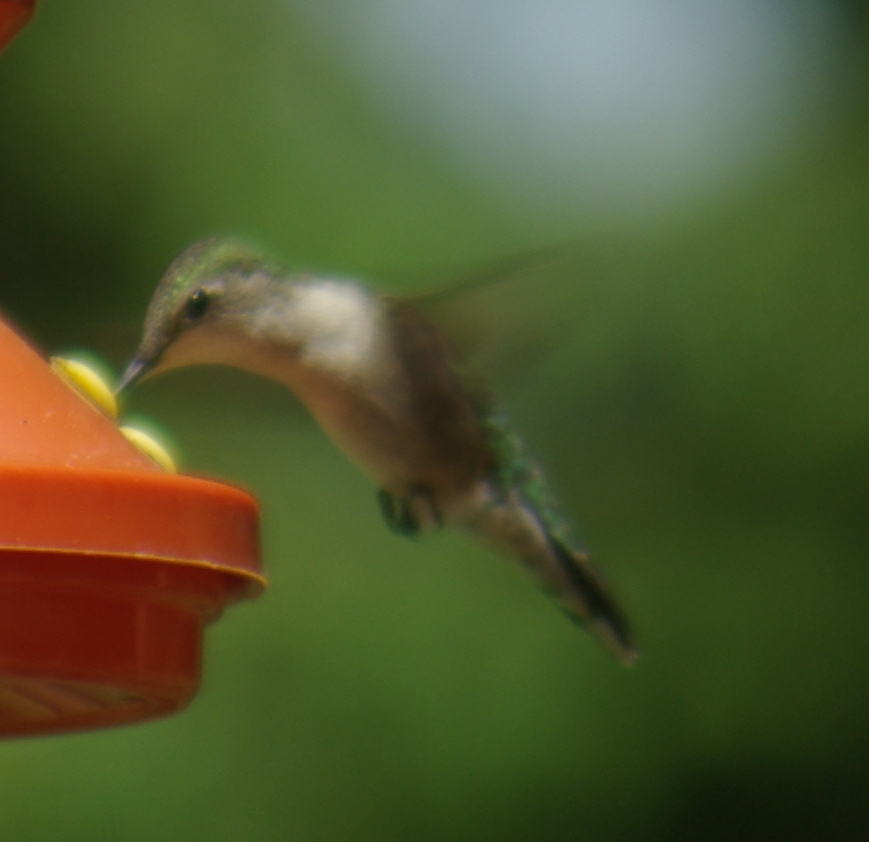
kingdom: Animalia
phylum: Chordata
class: Aves
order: Apodiformes
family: Trochilidae
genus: Archilochus
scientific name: Archilochus colubris
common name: Ruby-throated hummingbird
